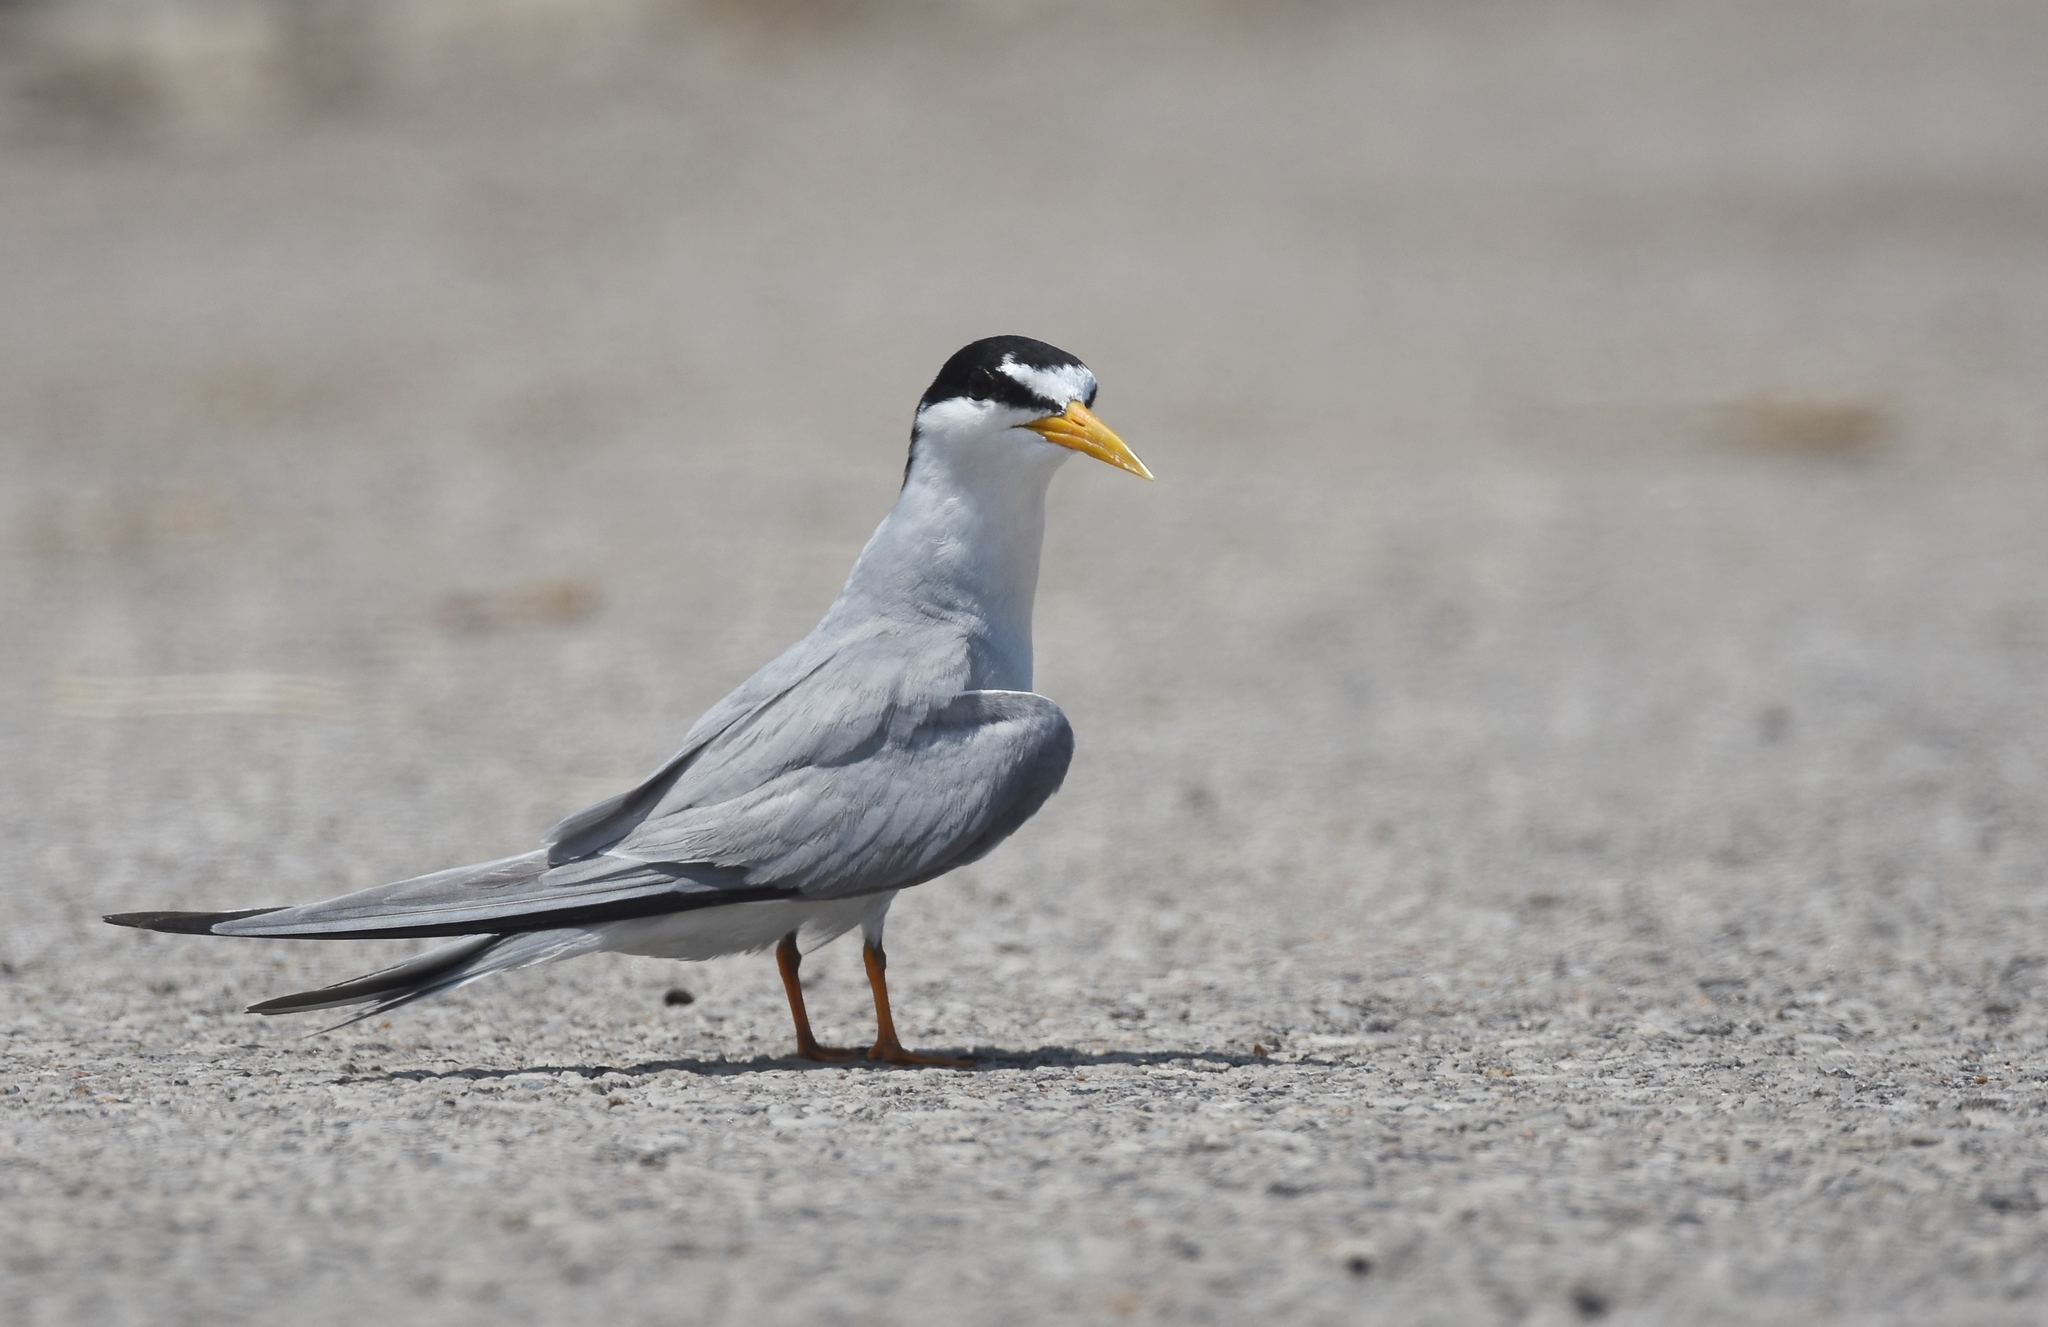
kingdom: Animalia
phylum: Chordata
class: Aves
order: Charadriiformes
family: Laridae
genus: Sternula
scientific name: Sternula antillarum
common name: Least tern
